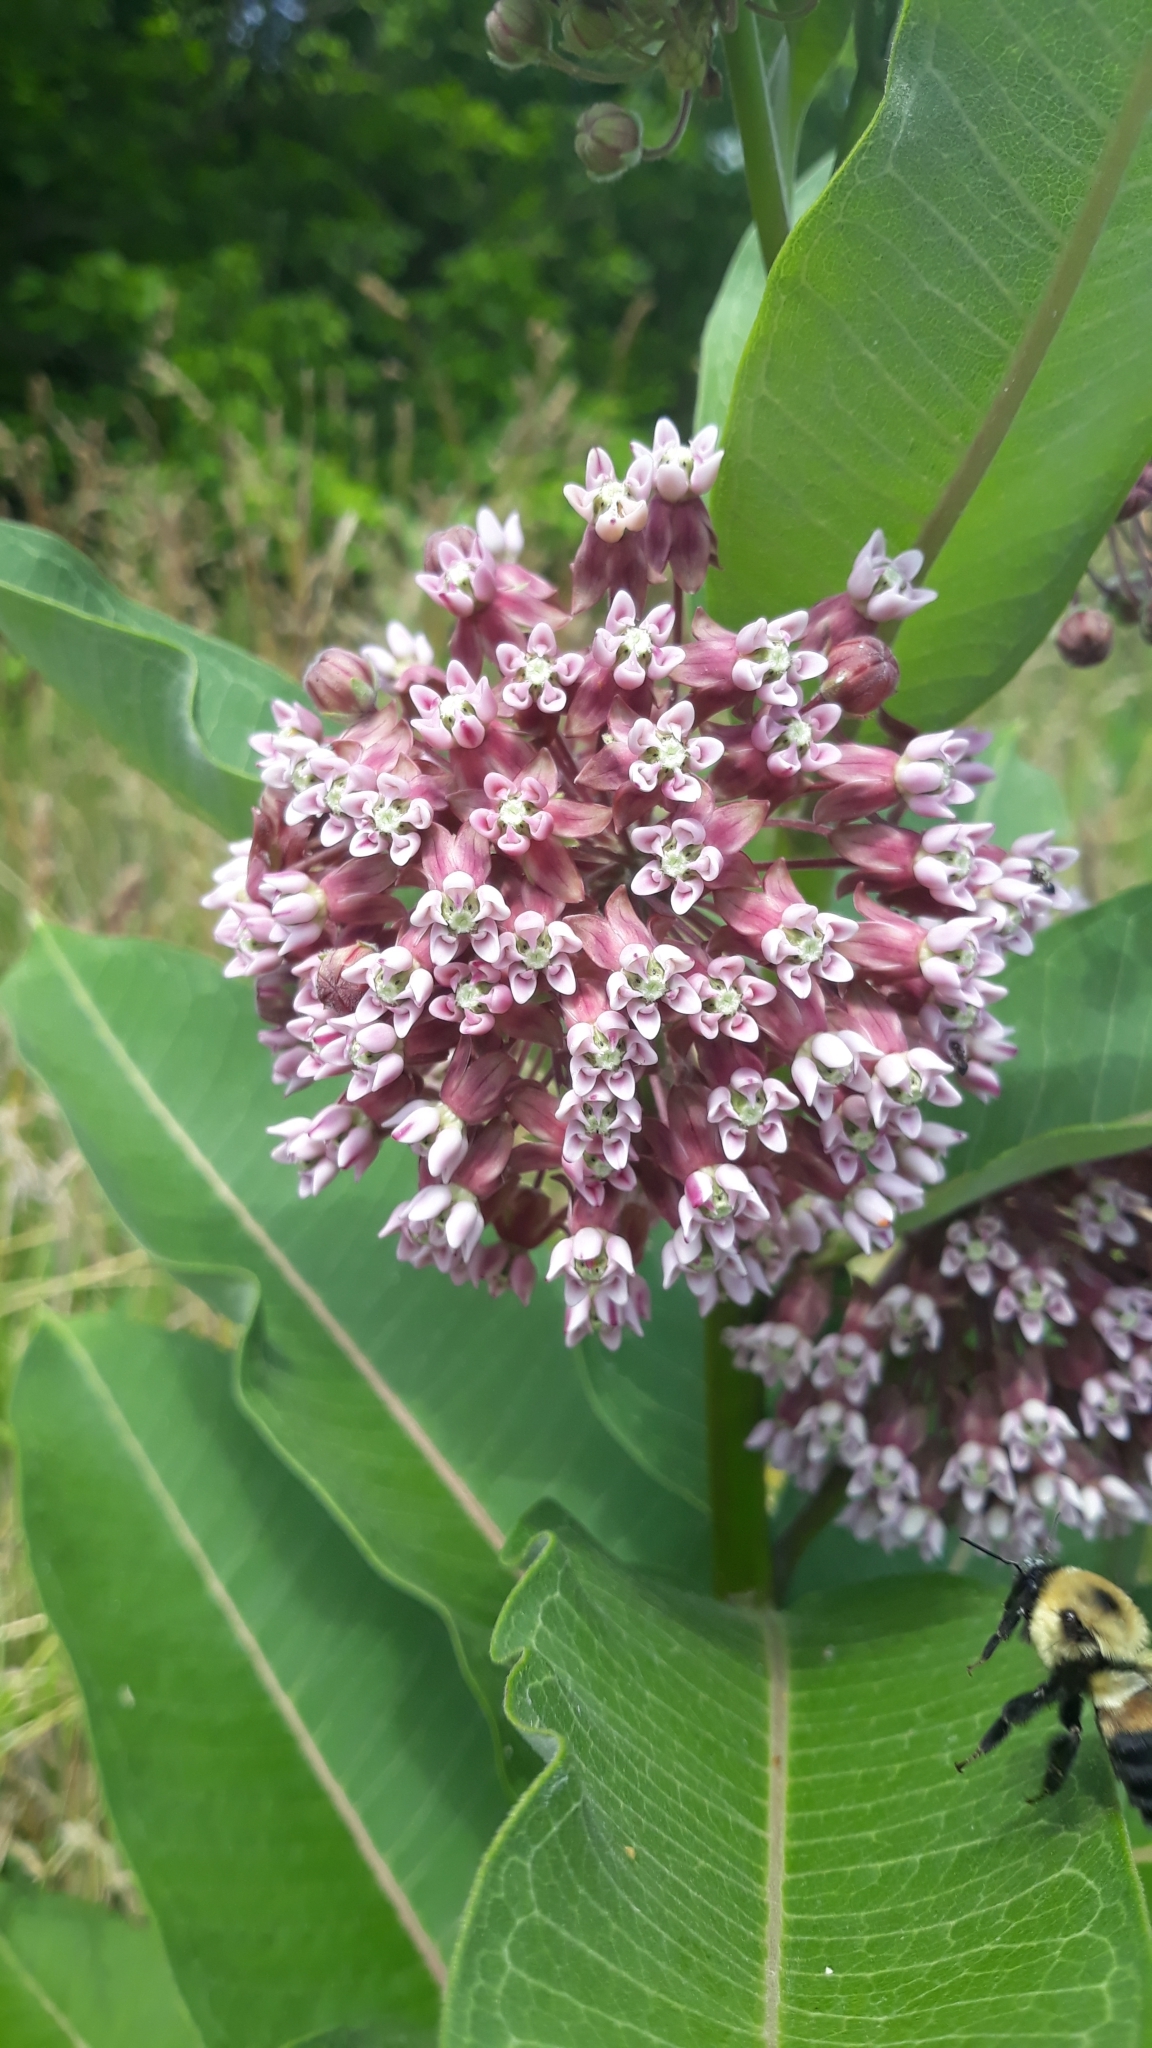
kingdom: Plantae
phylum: Tracheophyta
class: Magnoliopsida
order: Gentianales
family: Apocynaceae
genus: Asclepias
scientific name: Asclepias syriaca
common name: Common milkweed
